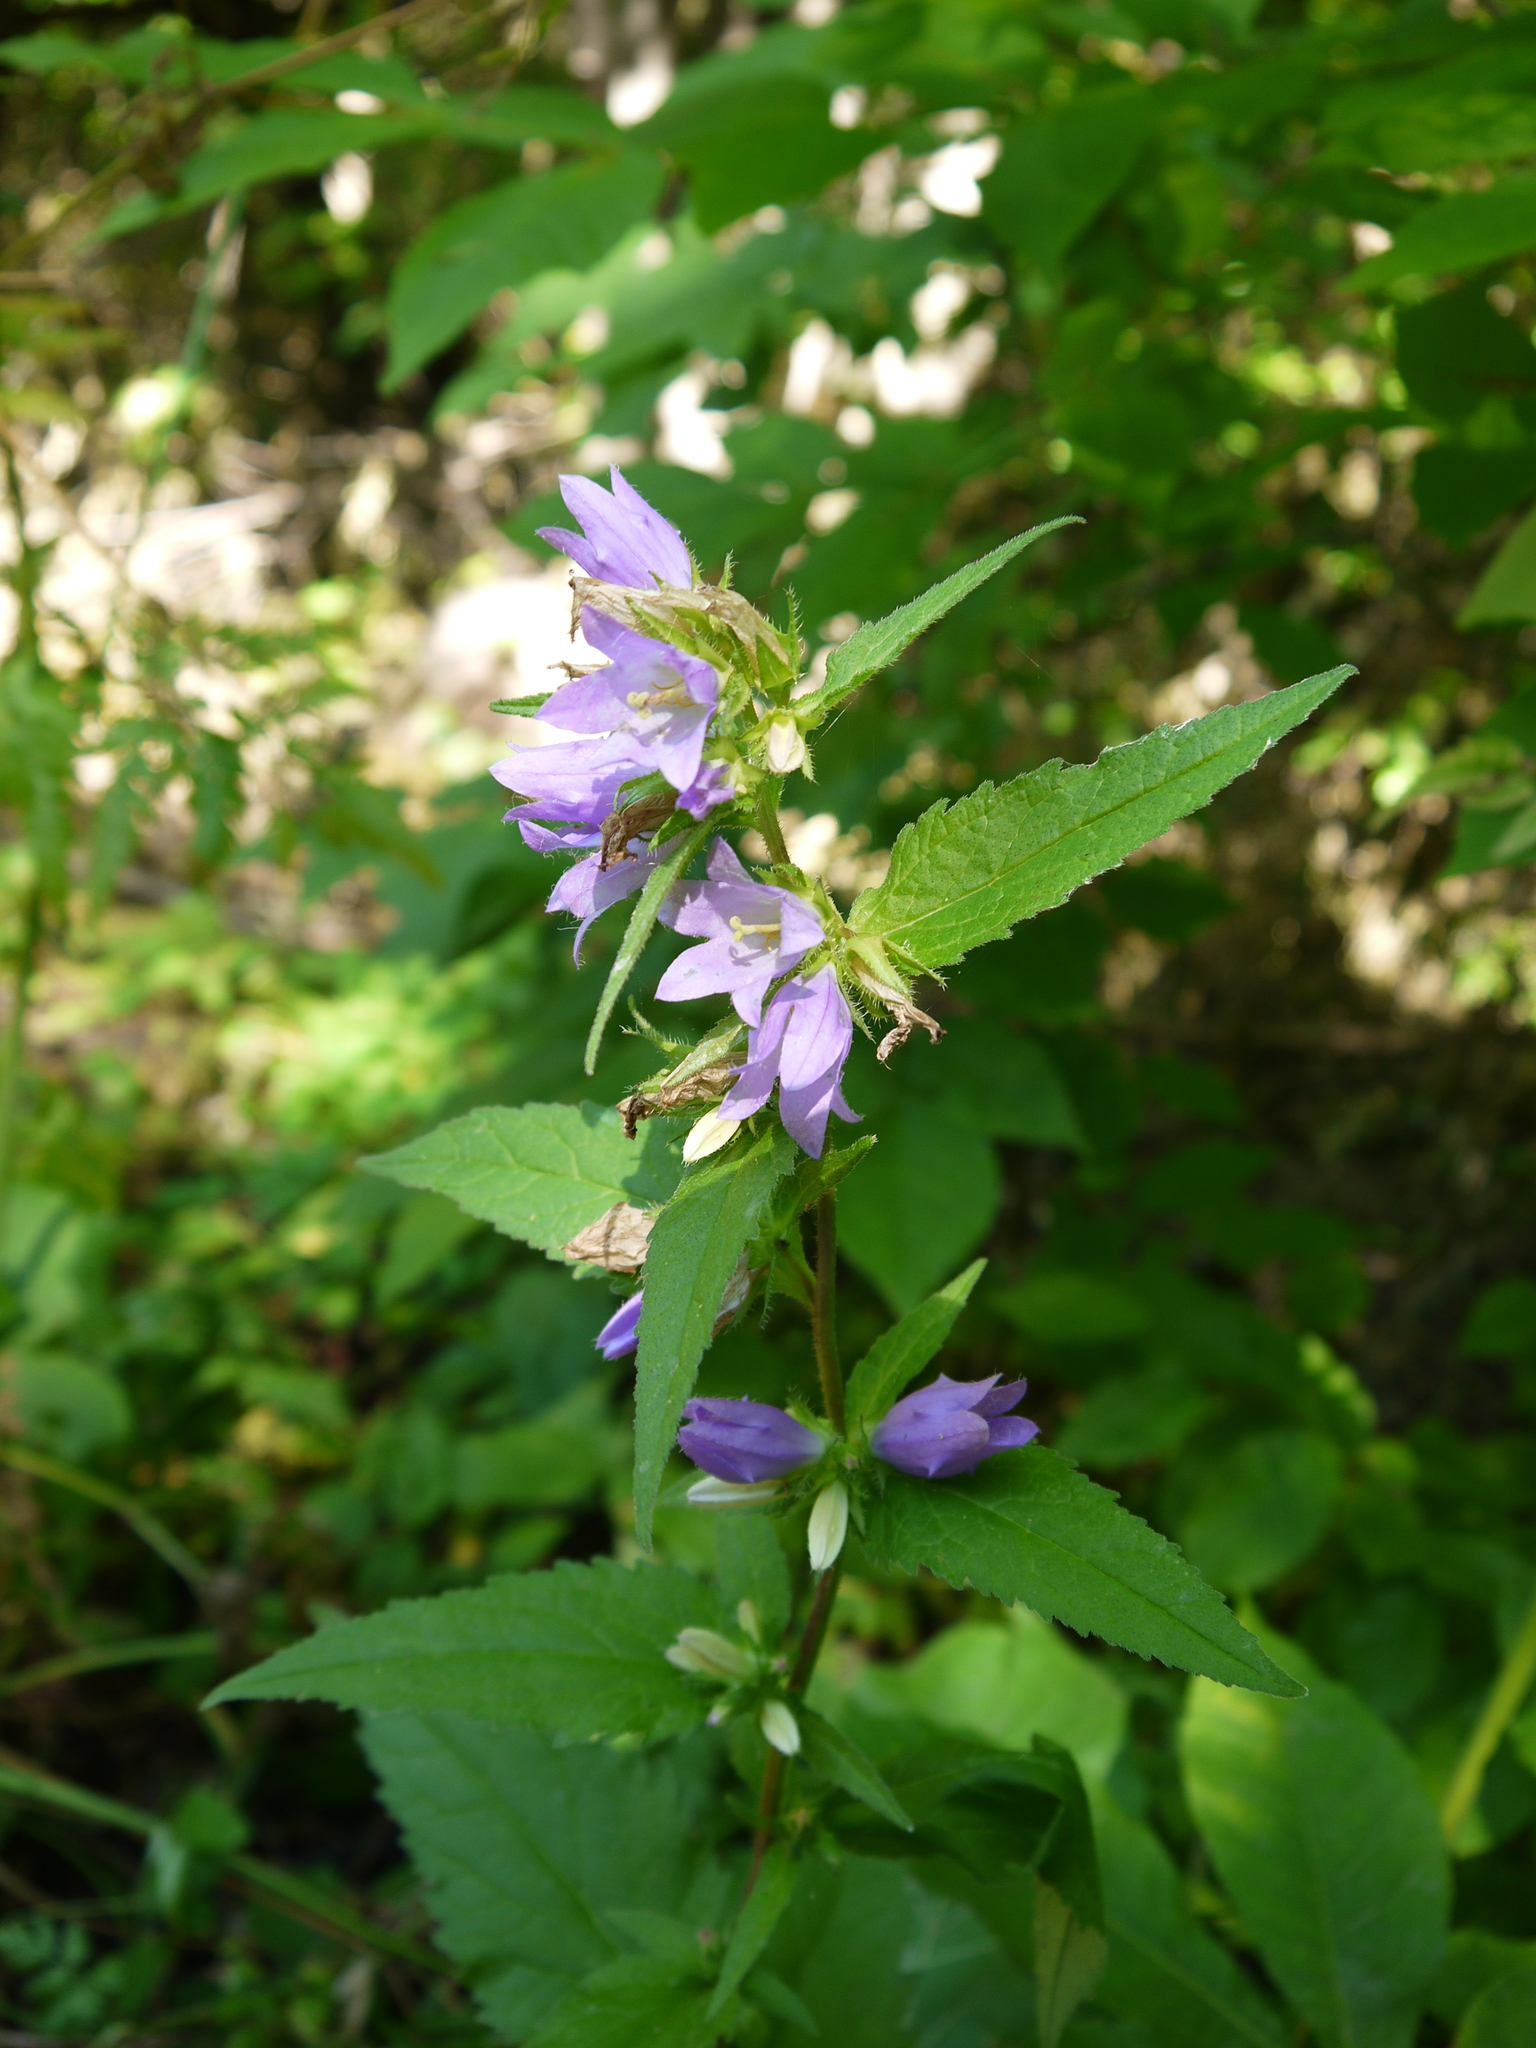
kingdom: Plantae
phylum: Tracheophyta
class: Magnoliopsida
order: Asterales
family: Campanulaceae
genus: Campanula
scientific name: Campanula trachelium
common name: Nettle-leaved bellflower
